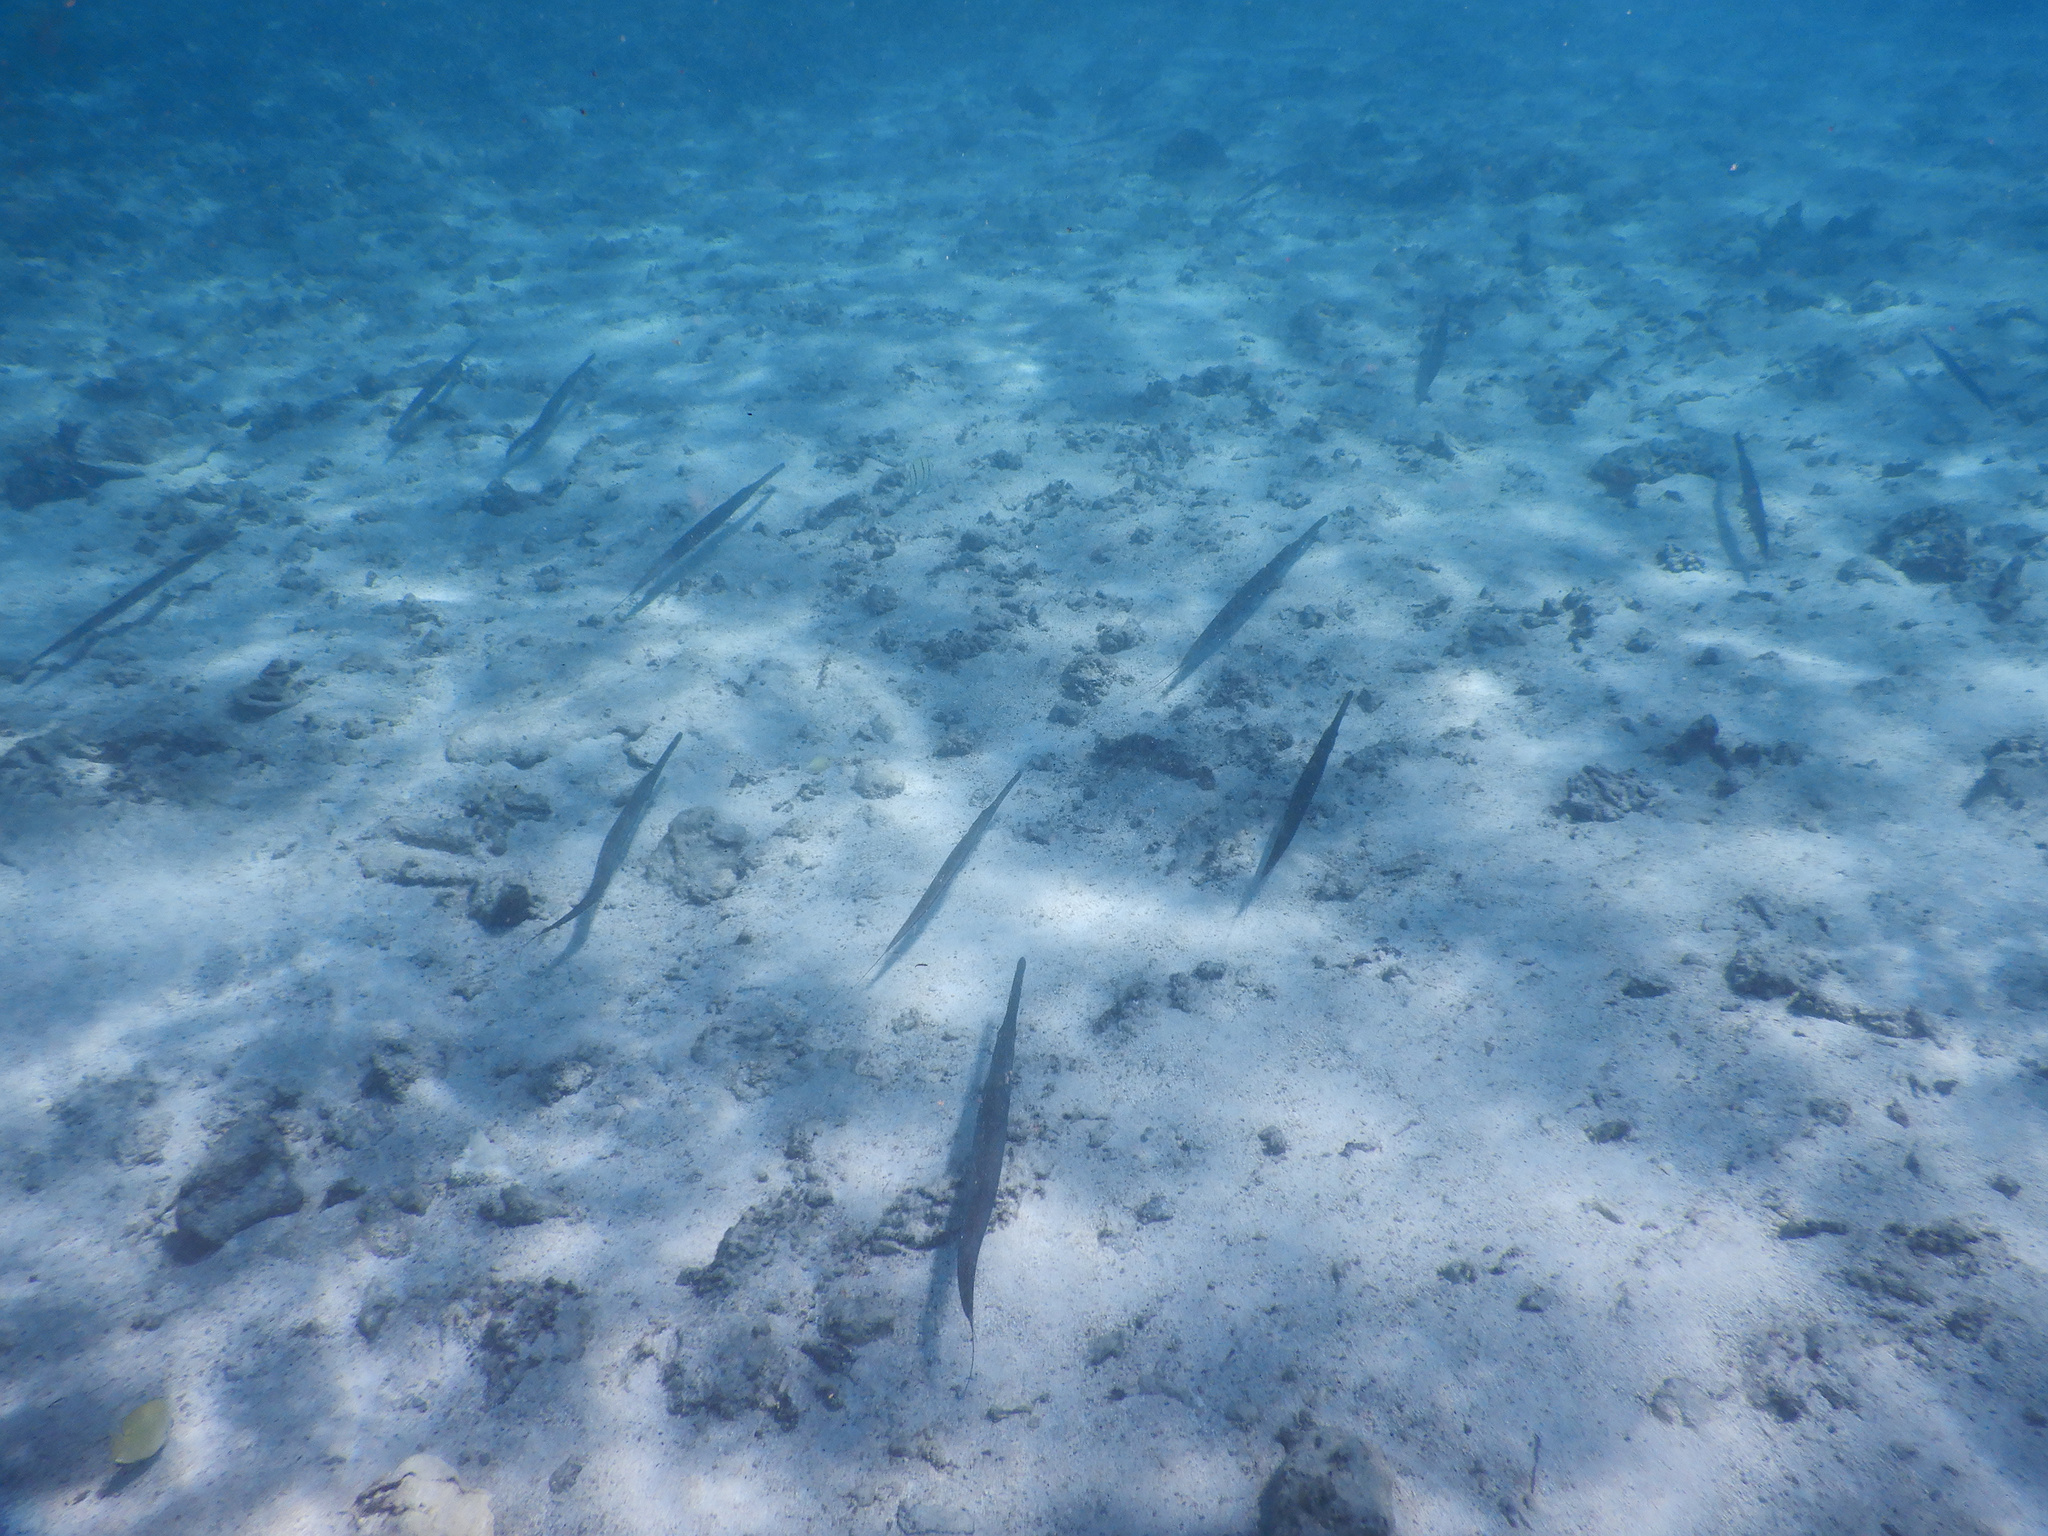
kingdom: Animalia
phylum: Chordata
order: Syngnathiformes
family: Fistulariidae
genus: Fistularia
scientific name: Fistularia commersonii
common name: Bluespotted cornetfish
